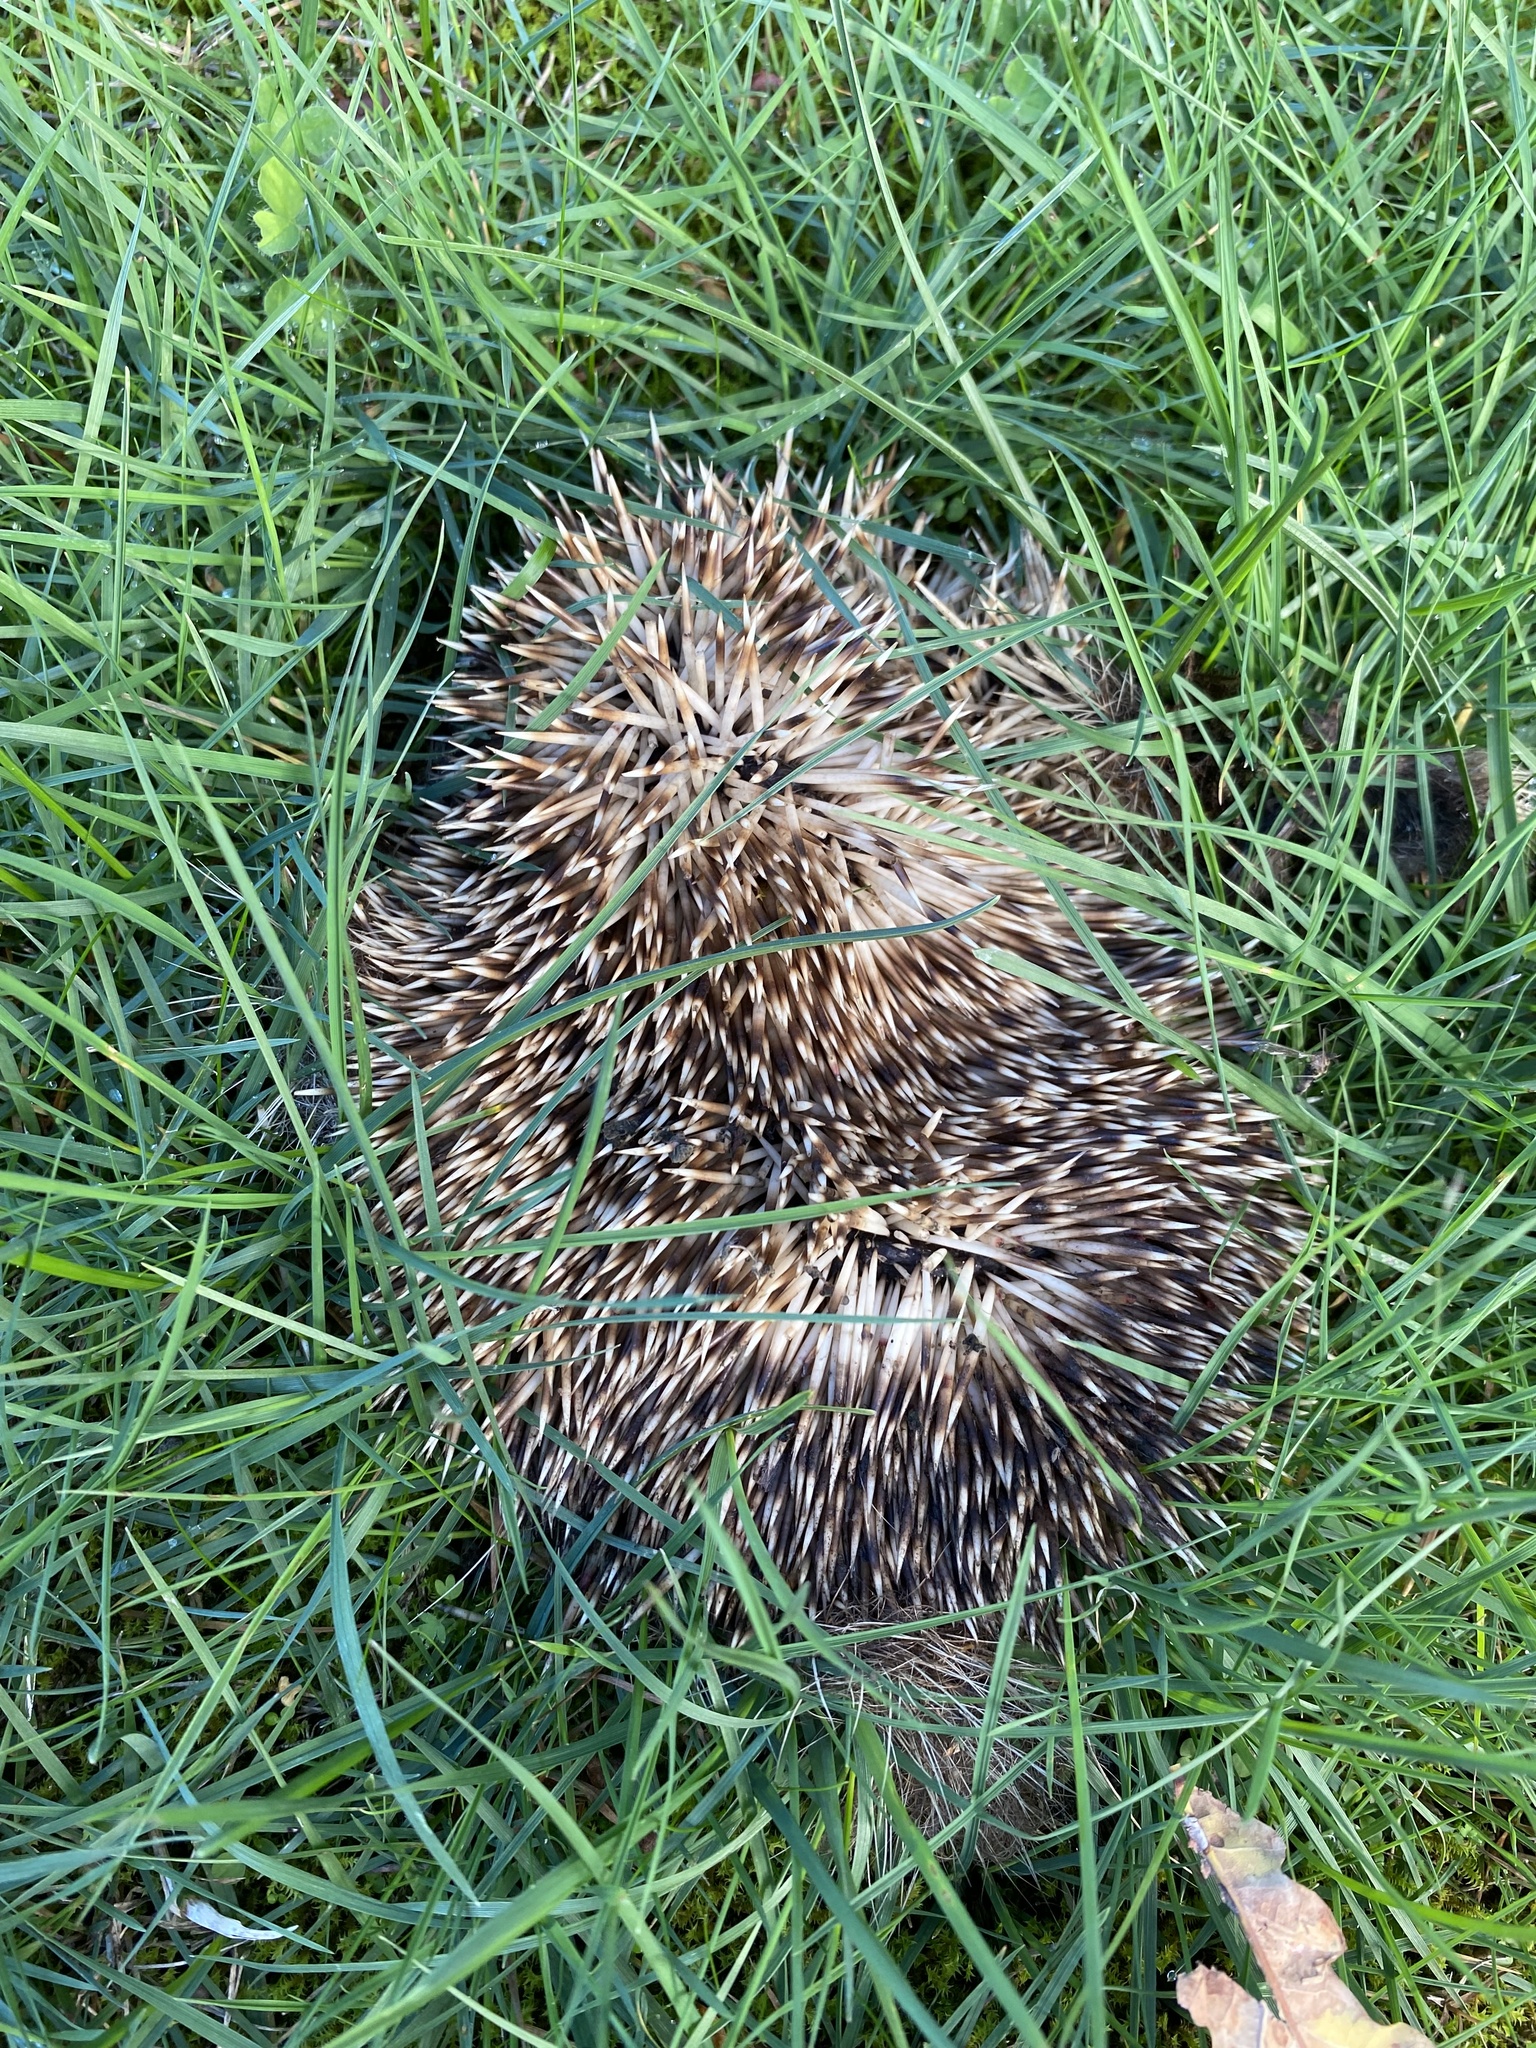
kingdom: Animalia
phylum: Chordata
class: Mammalia
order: Erinaceomorpha
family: Erinaceidae
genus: Erinaceus
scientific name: Erinaceus europaeus
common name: West european hedgehog
